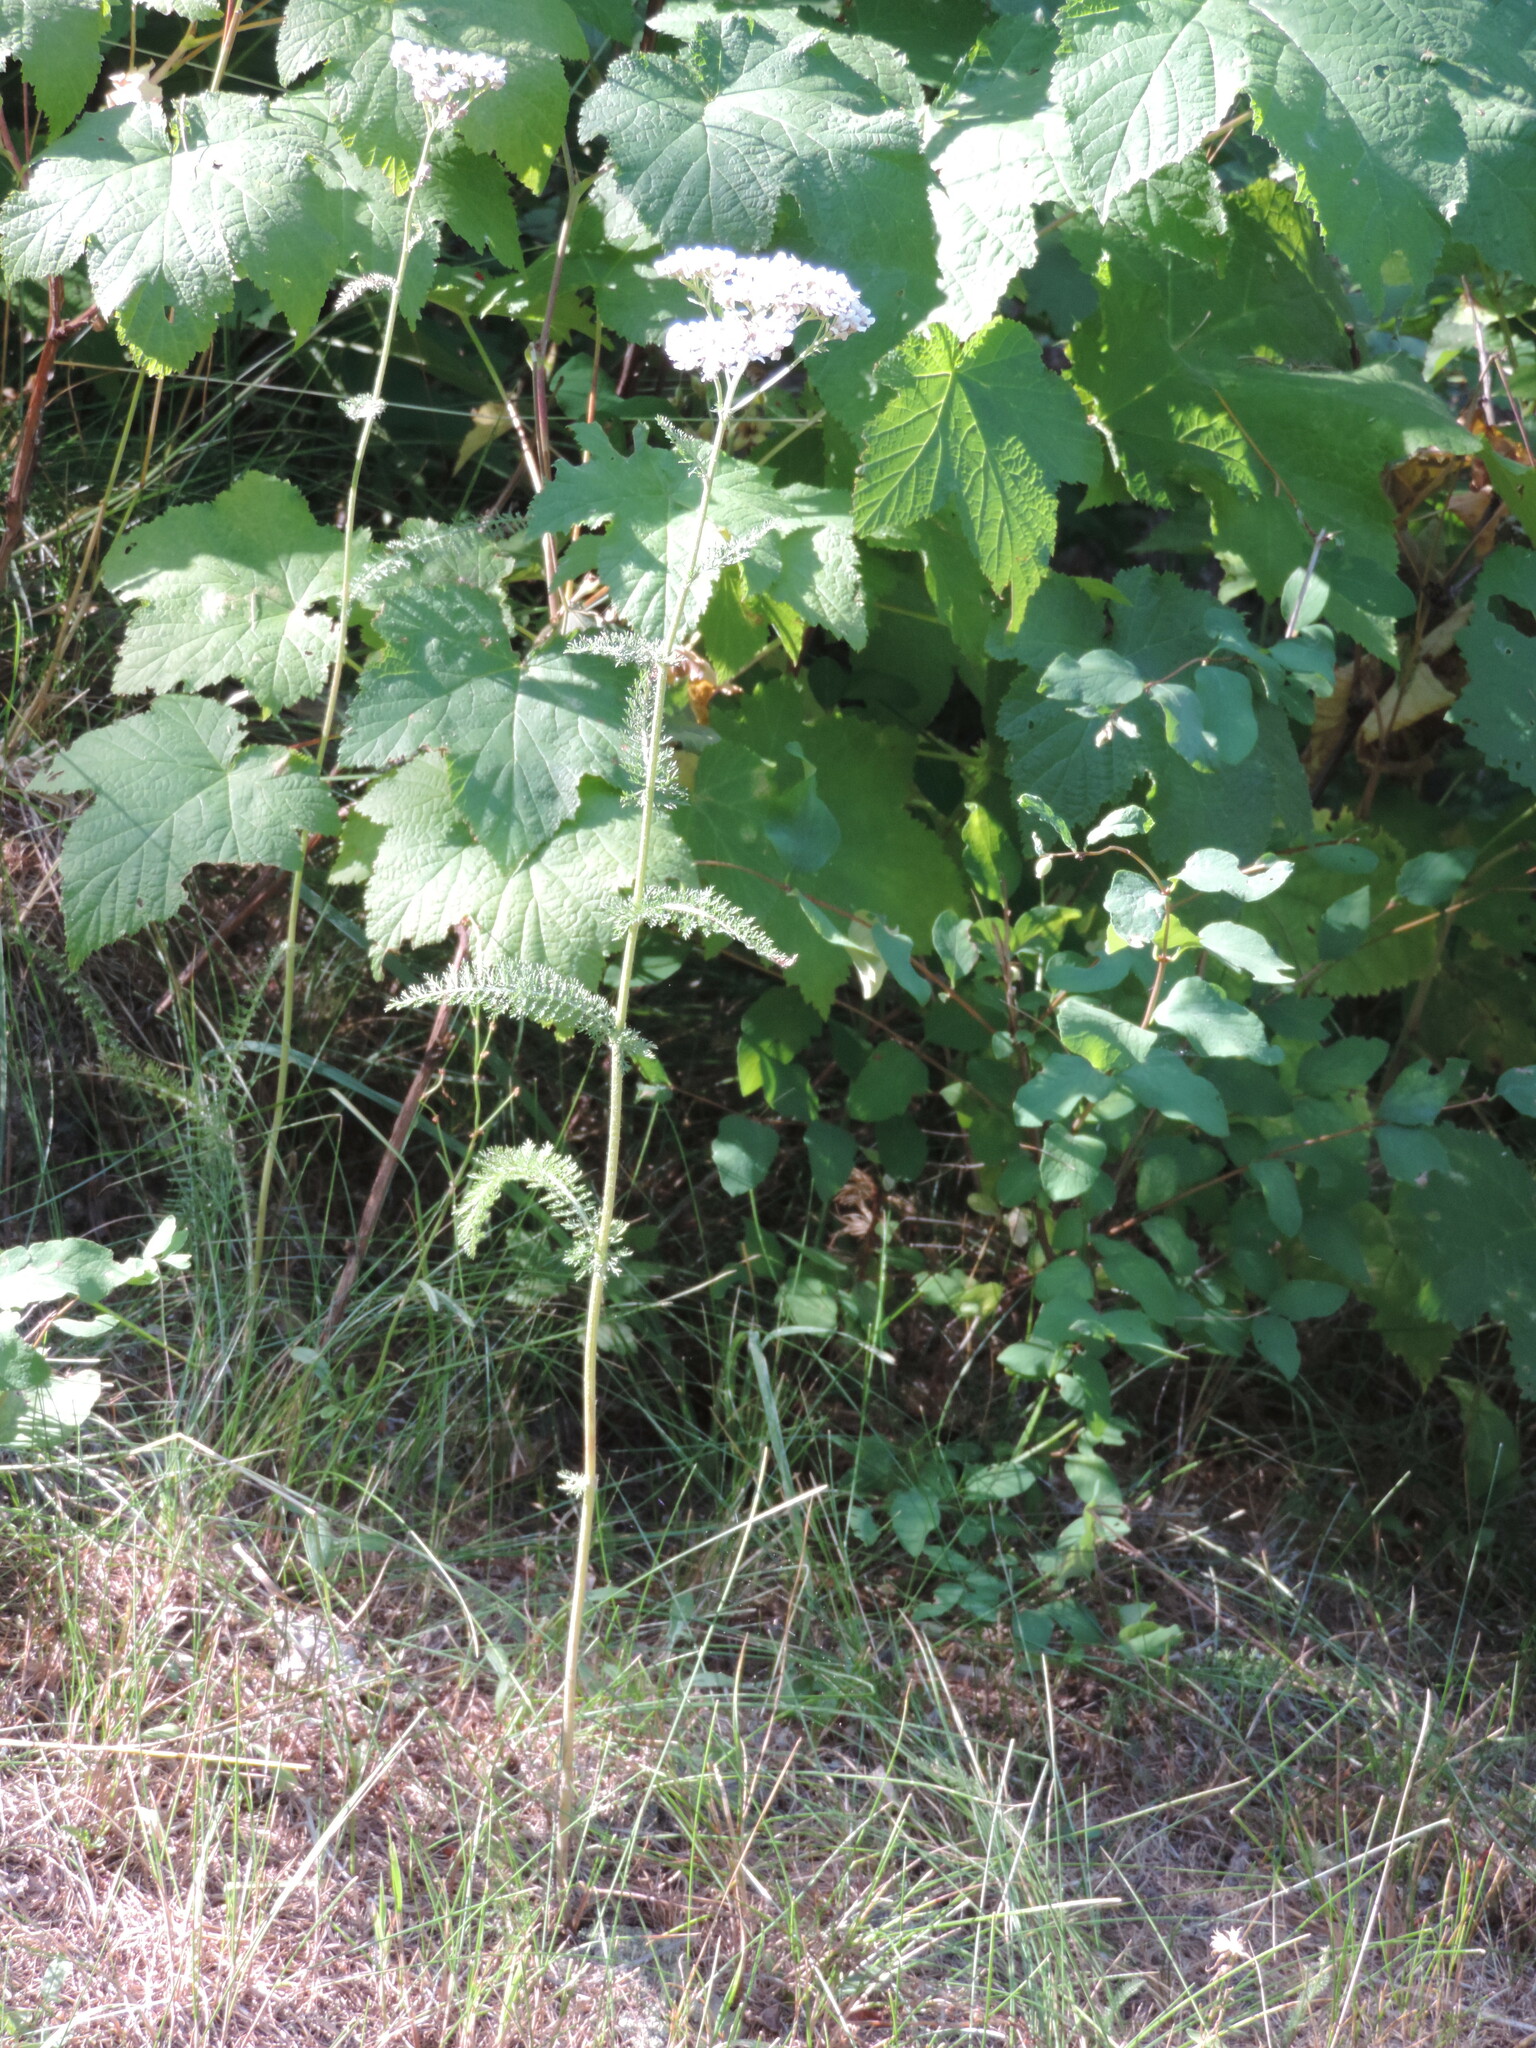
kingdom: Plantae
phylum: Tracheophyta
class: Magnoliopsida
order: Asterales
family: Asteraceae
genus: Achillea
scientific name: Achillea millefolium
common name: Yarrow
